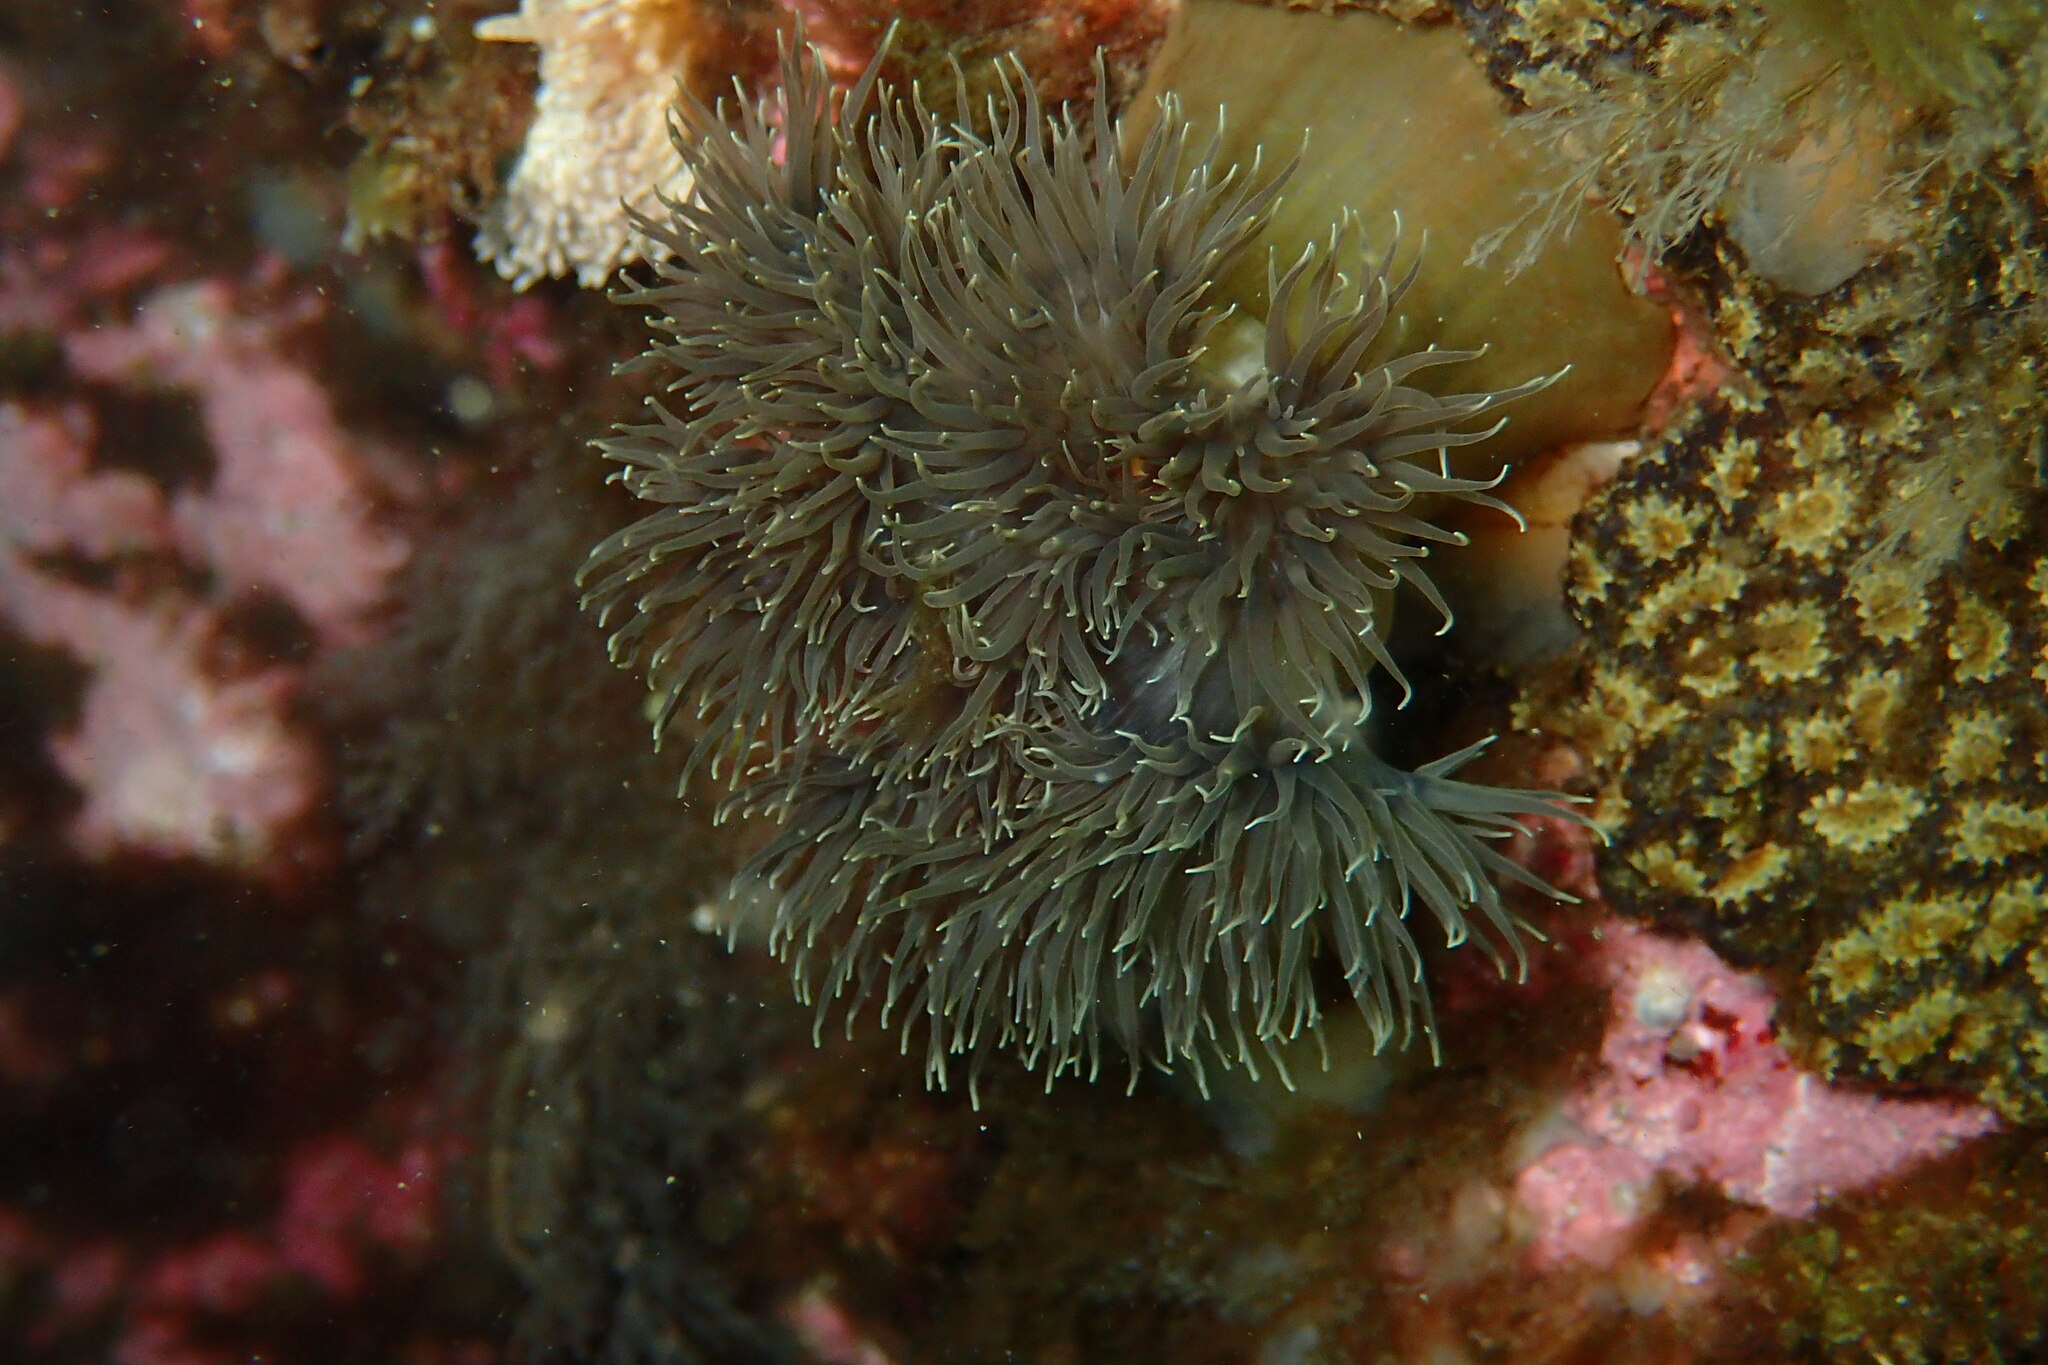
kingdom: Animalia
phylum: Cnidaria
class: Anthozoa
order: Actiniaria
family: Metridiidae
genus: Metridium
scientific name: Metridium senile
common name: Clonal plumose anemone
